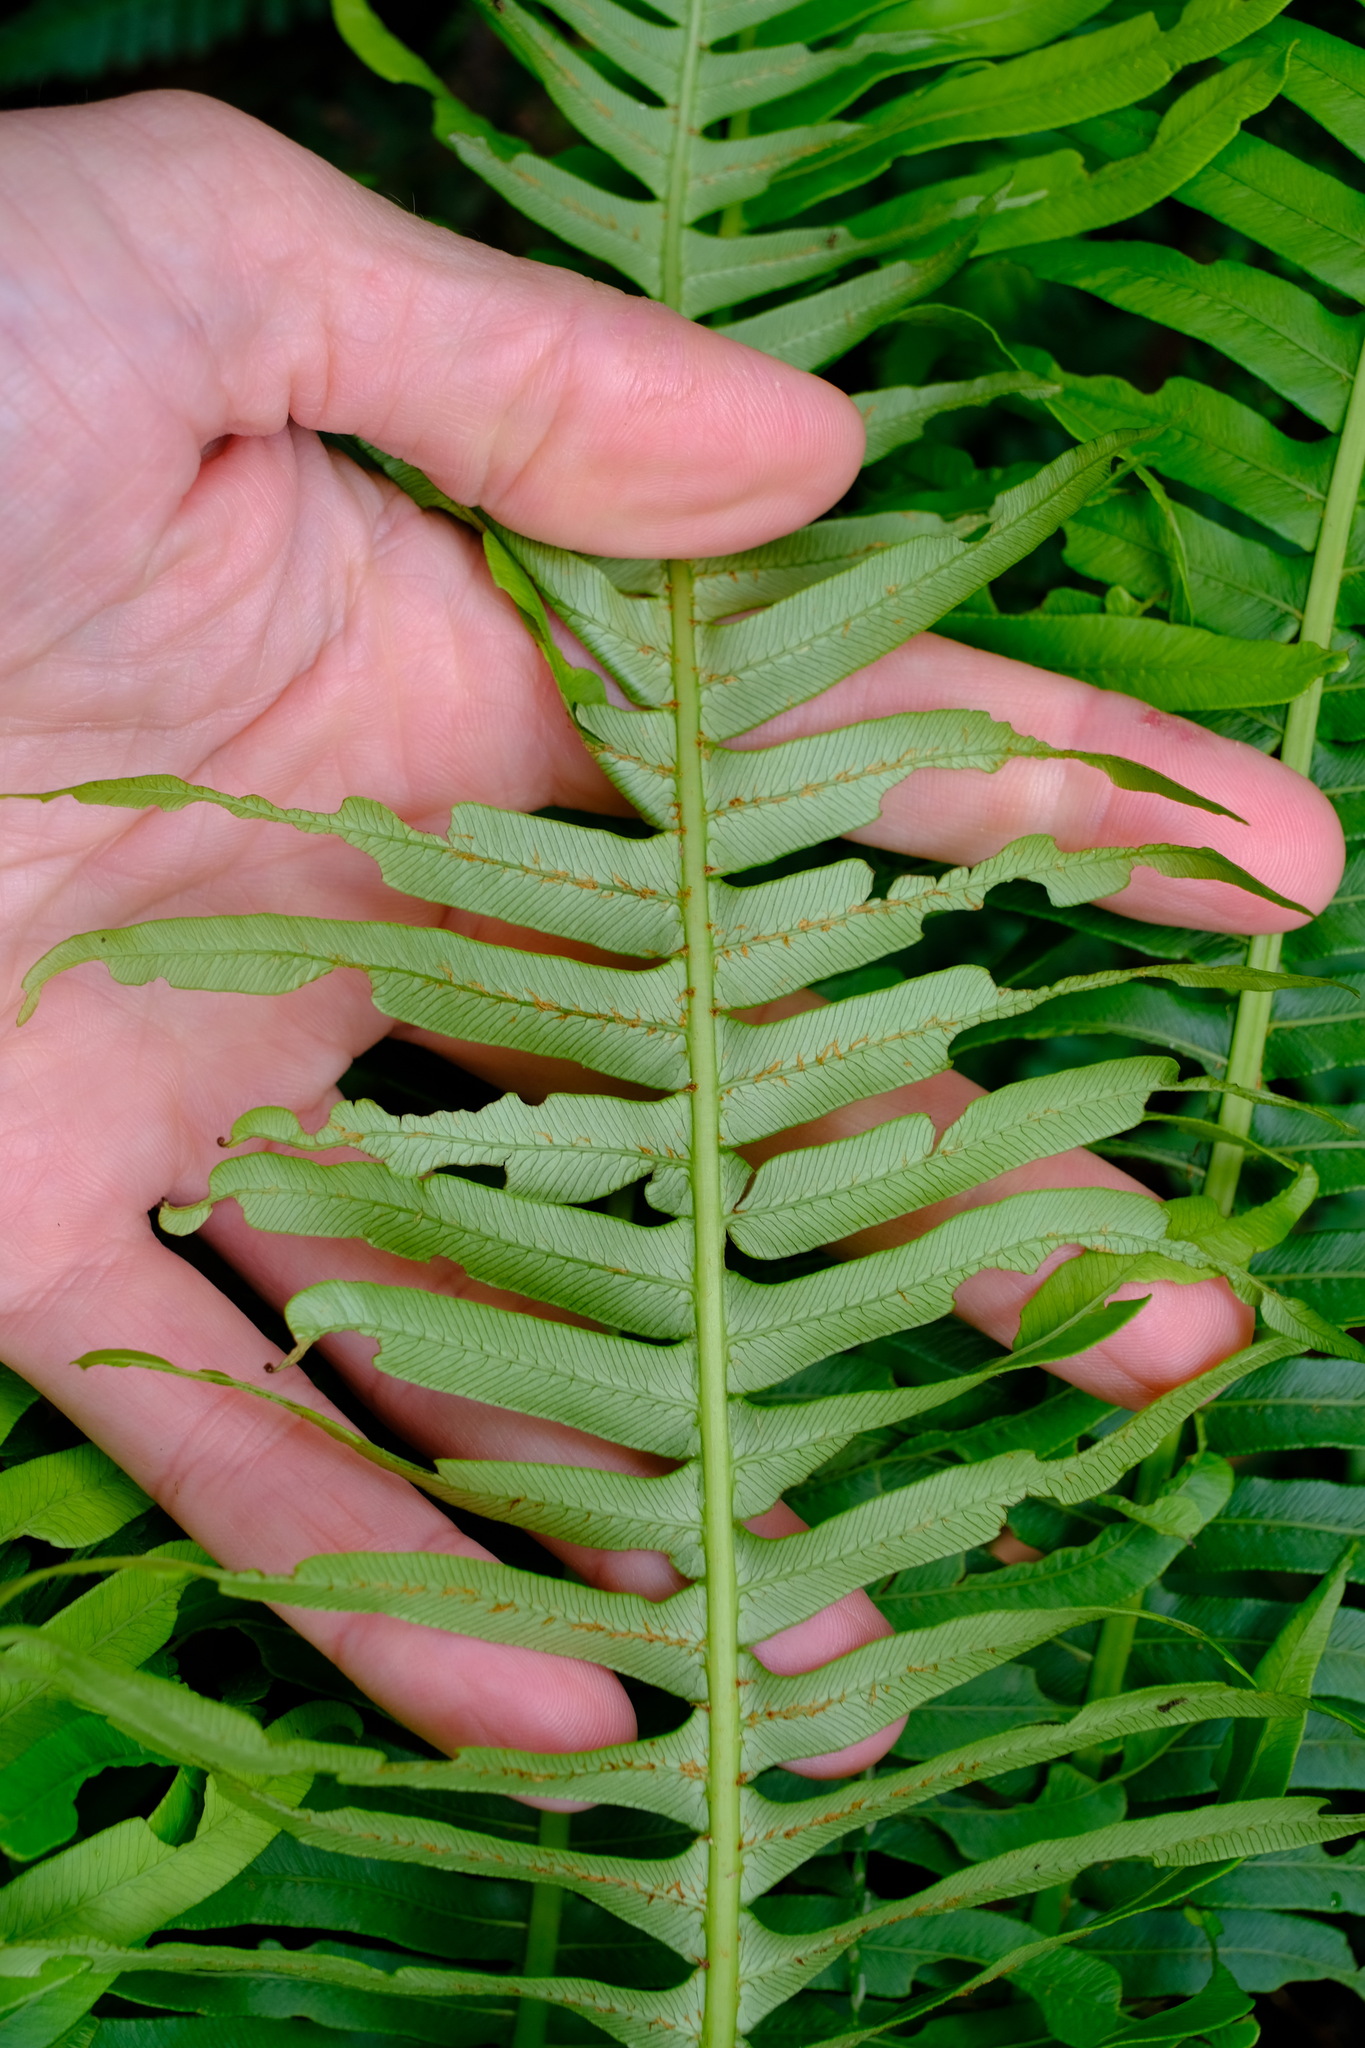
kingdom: Plantae
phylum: Tracheophyta
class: Polypodiopsida
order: Polypodiales
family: Blechnaceae
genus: Lomaria
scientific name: Lomaria nuda
